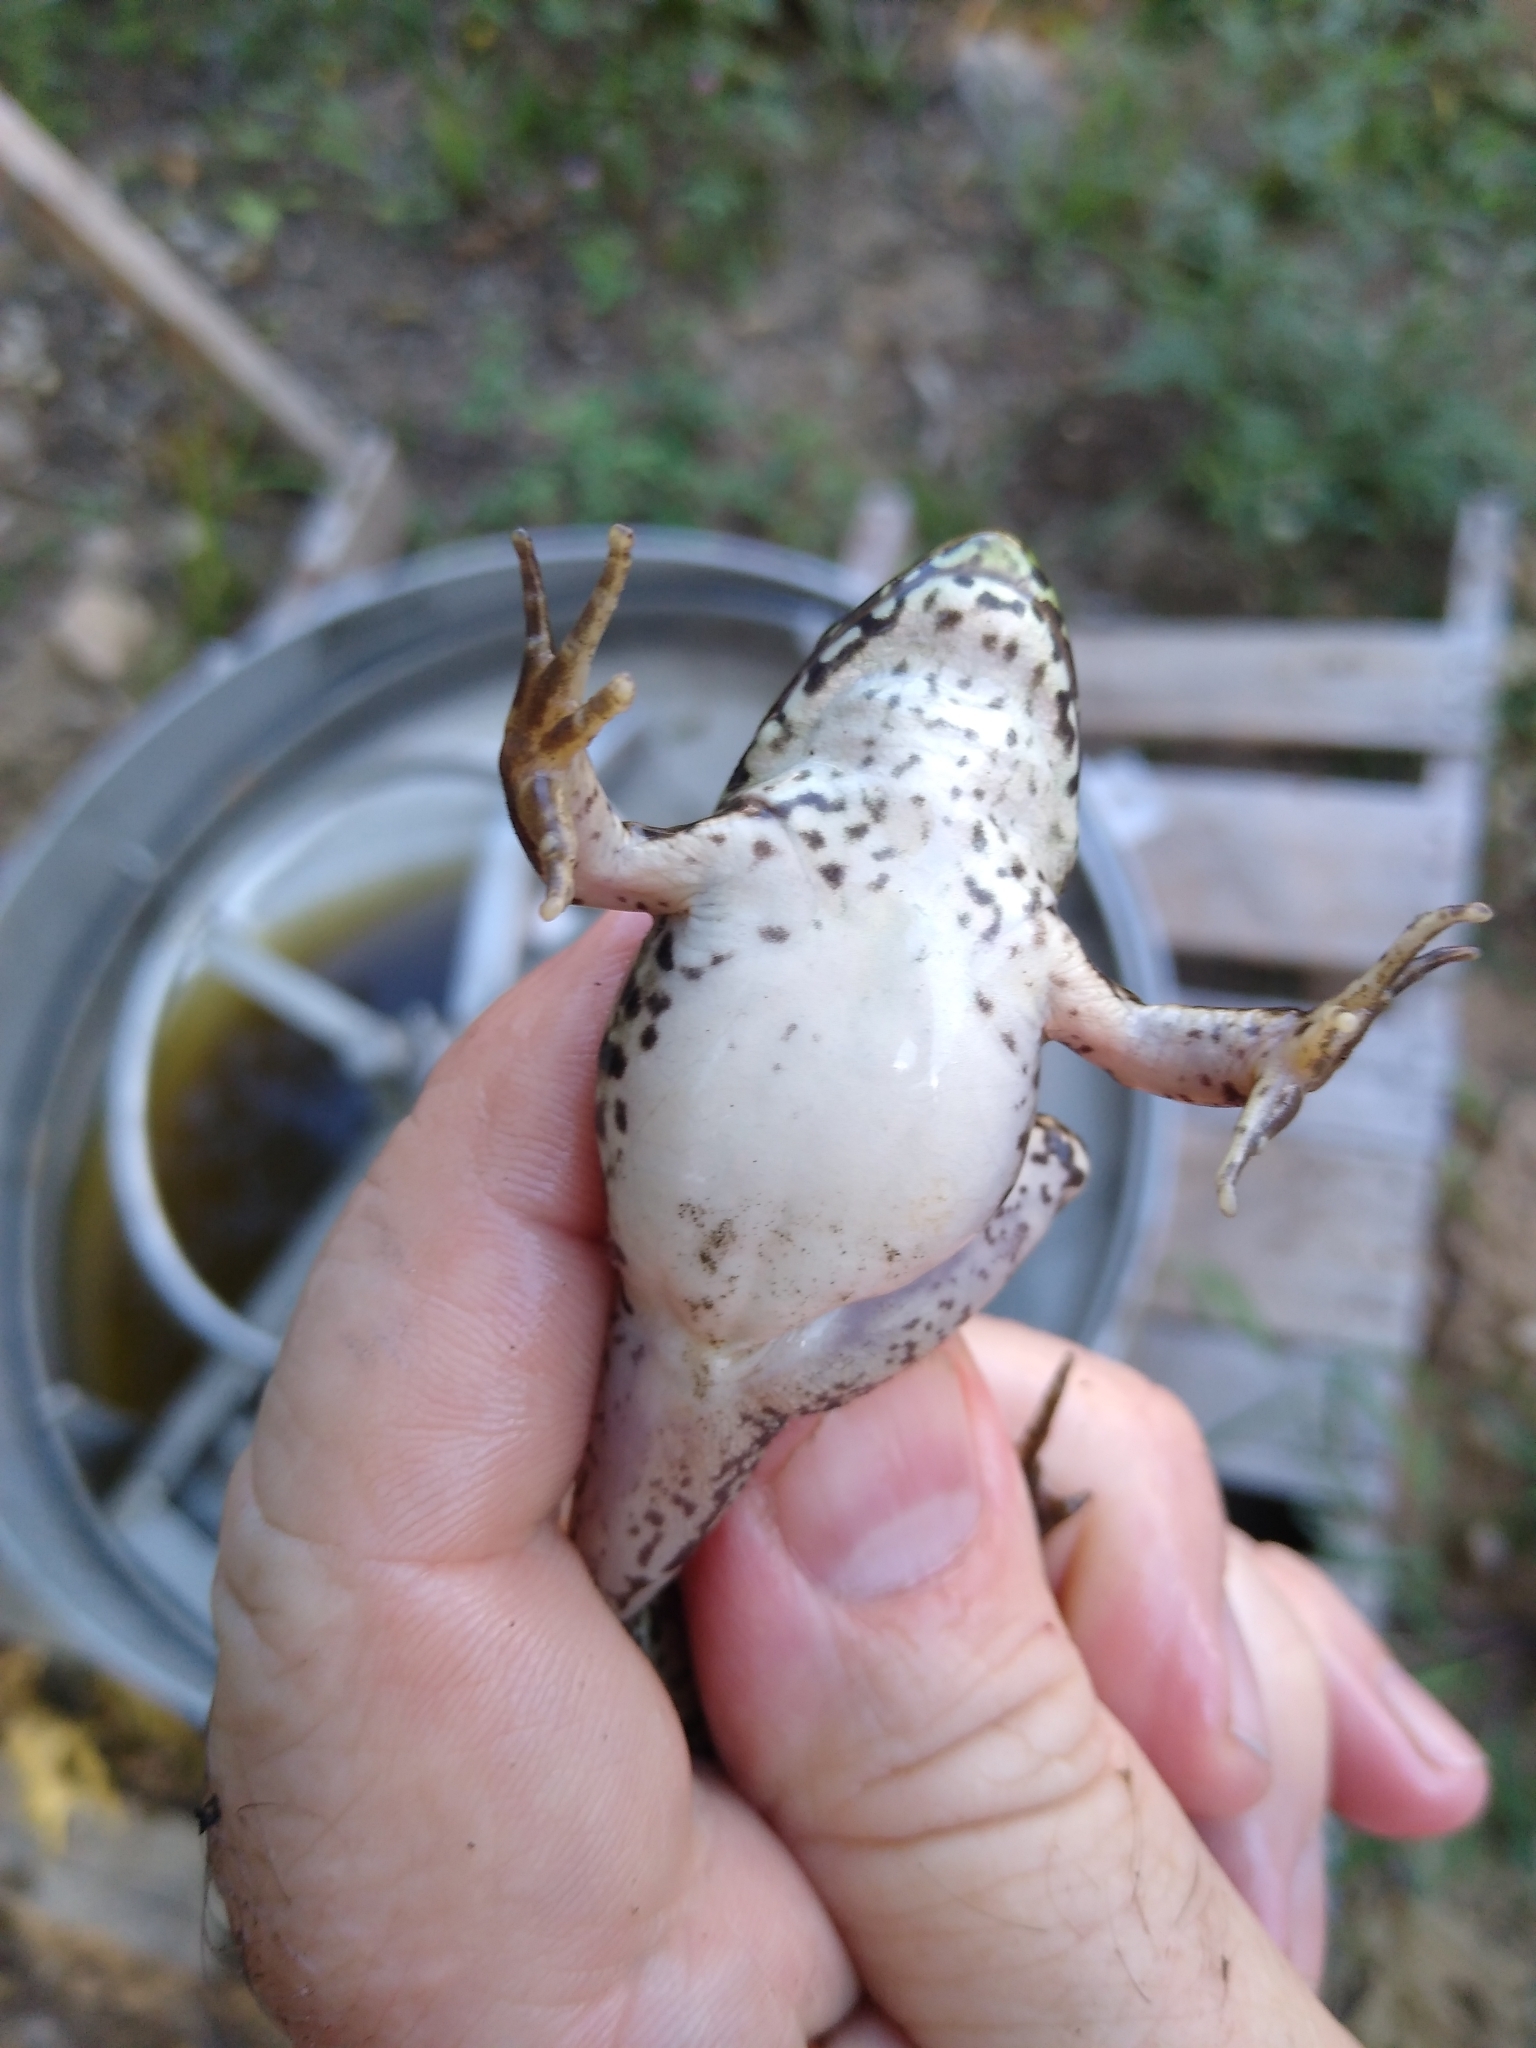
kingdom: Animalia
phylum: Chordata
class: Amphibia
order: Anura
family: Ranidae
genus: Lithobates
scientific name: Lithobates clamitans
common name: Green frog
